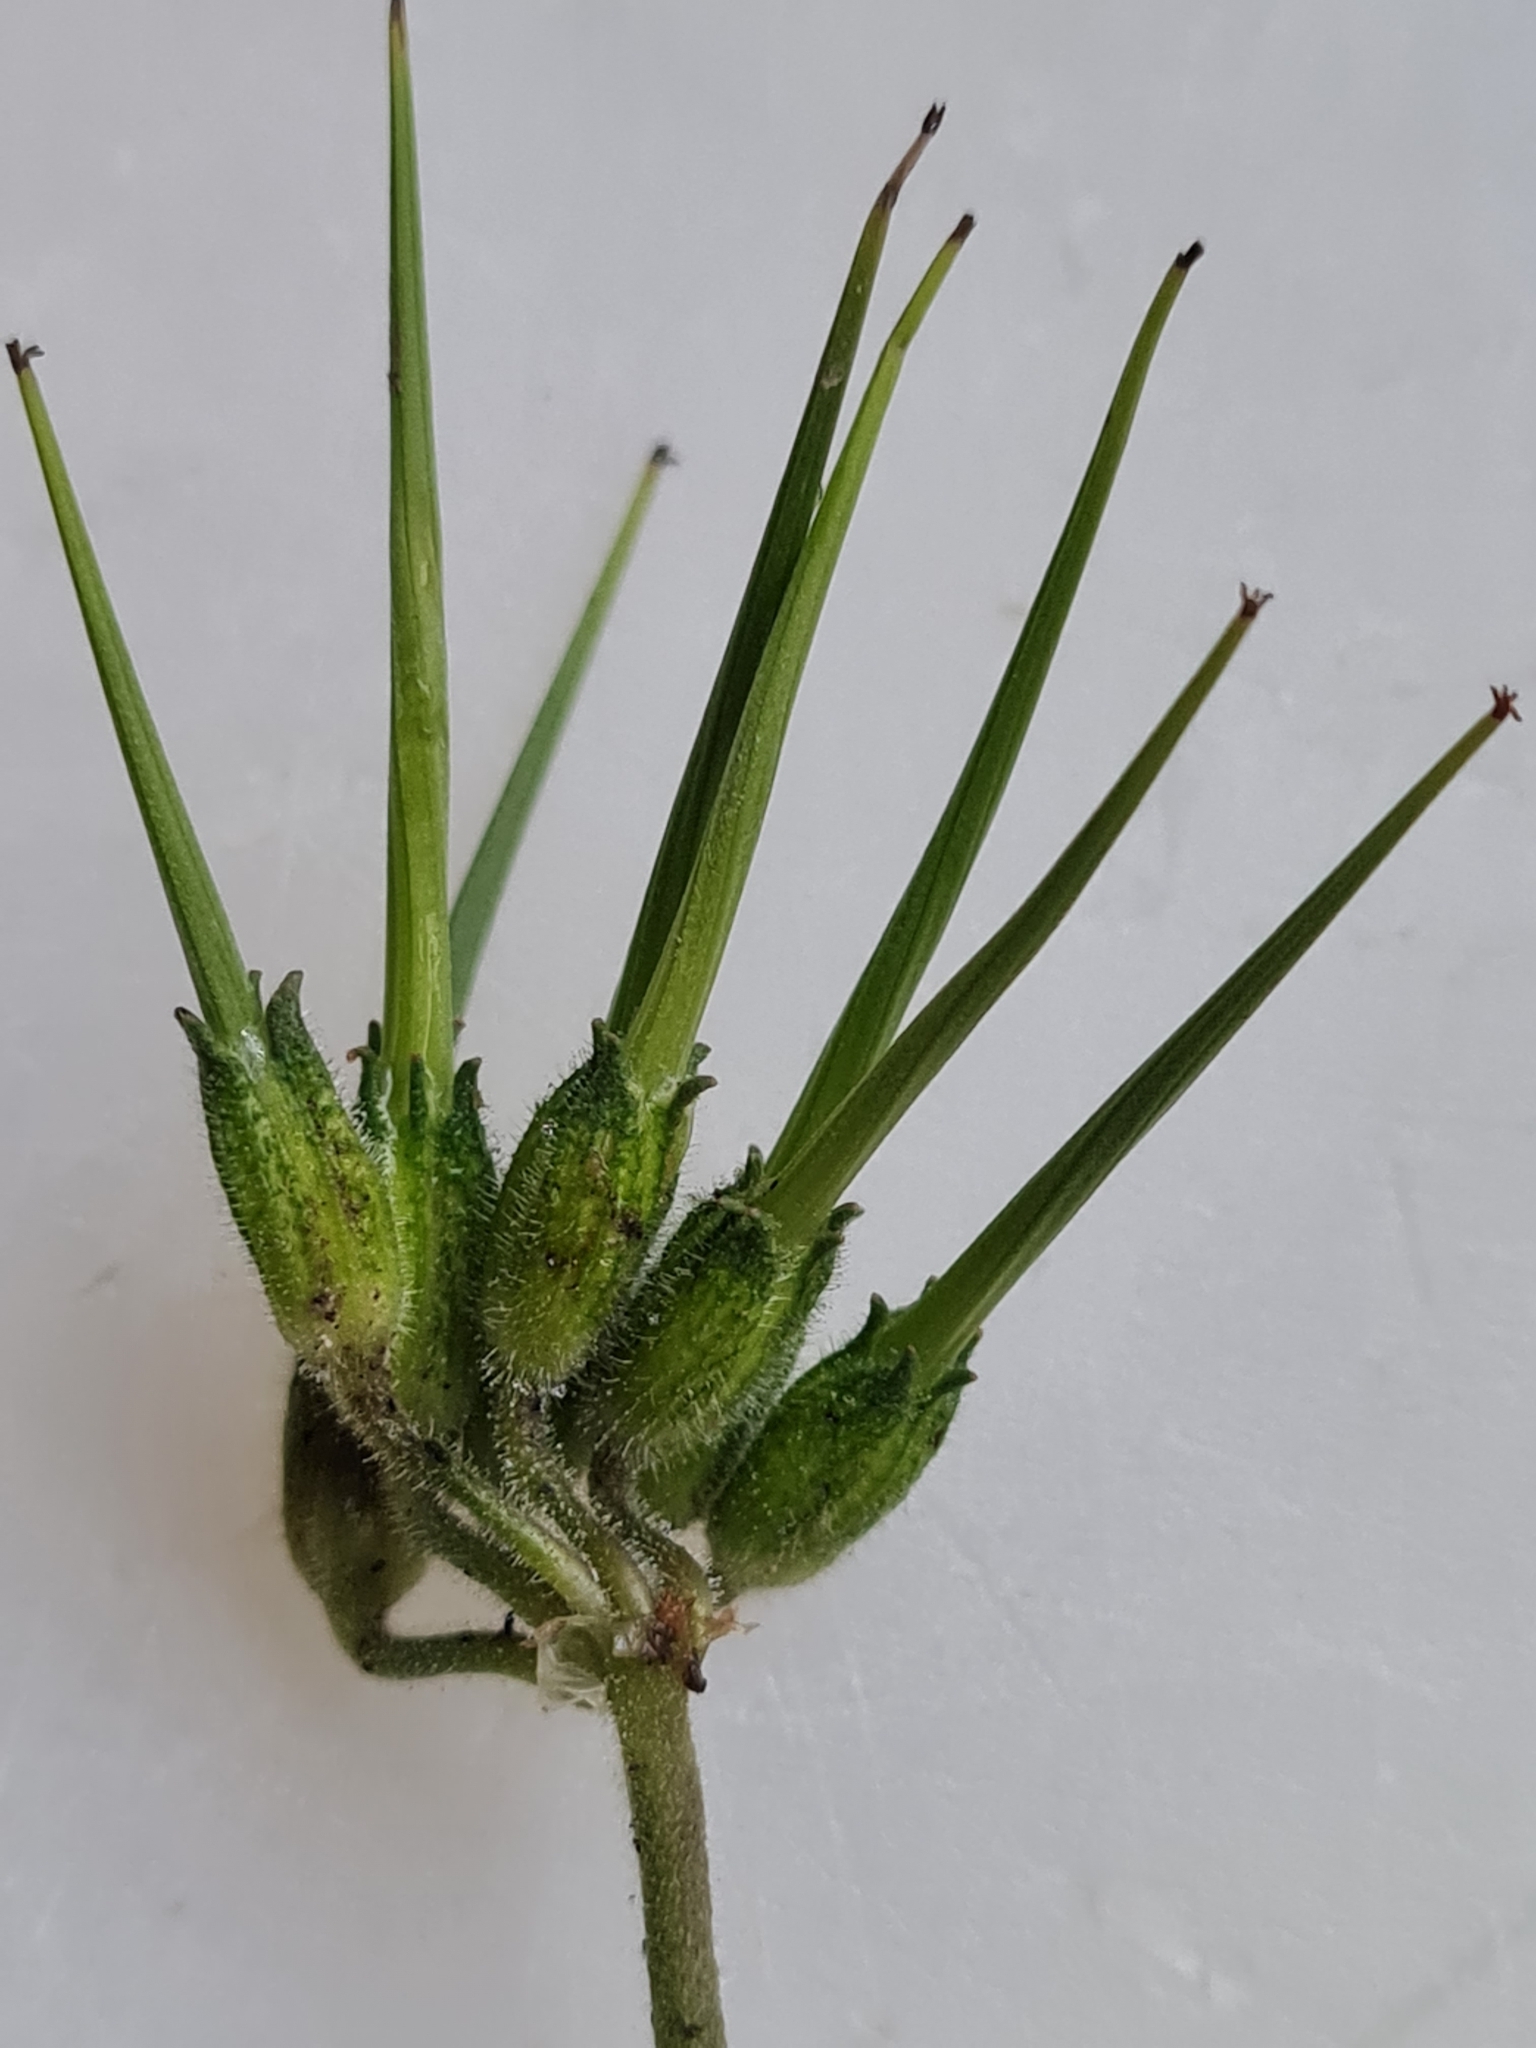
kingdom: Plantae
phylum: Tracheophyta
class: Magnoliopsida
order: Geraniales
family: Geraniaceae
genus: Erodium
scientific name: Erodium moschatum
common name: Musk stork's-bill
